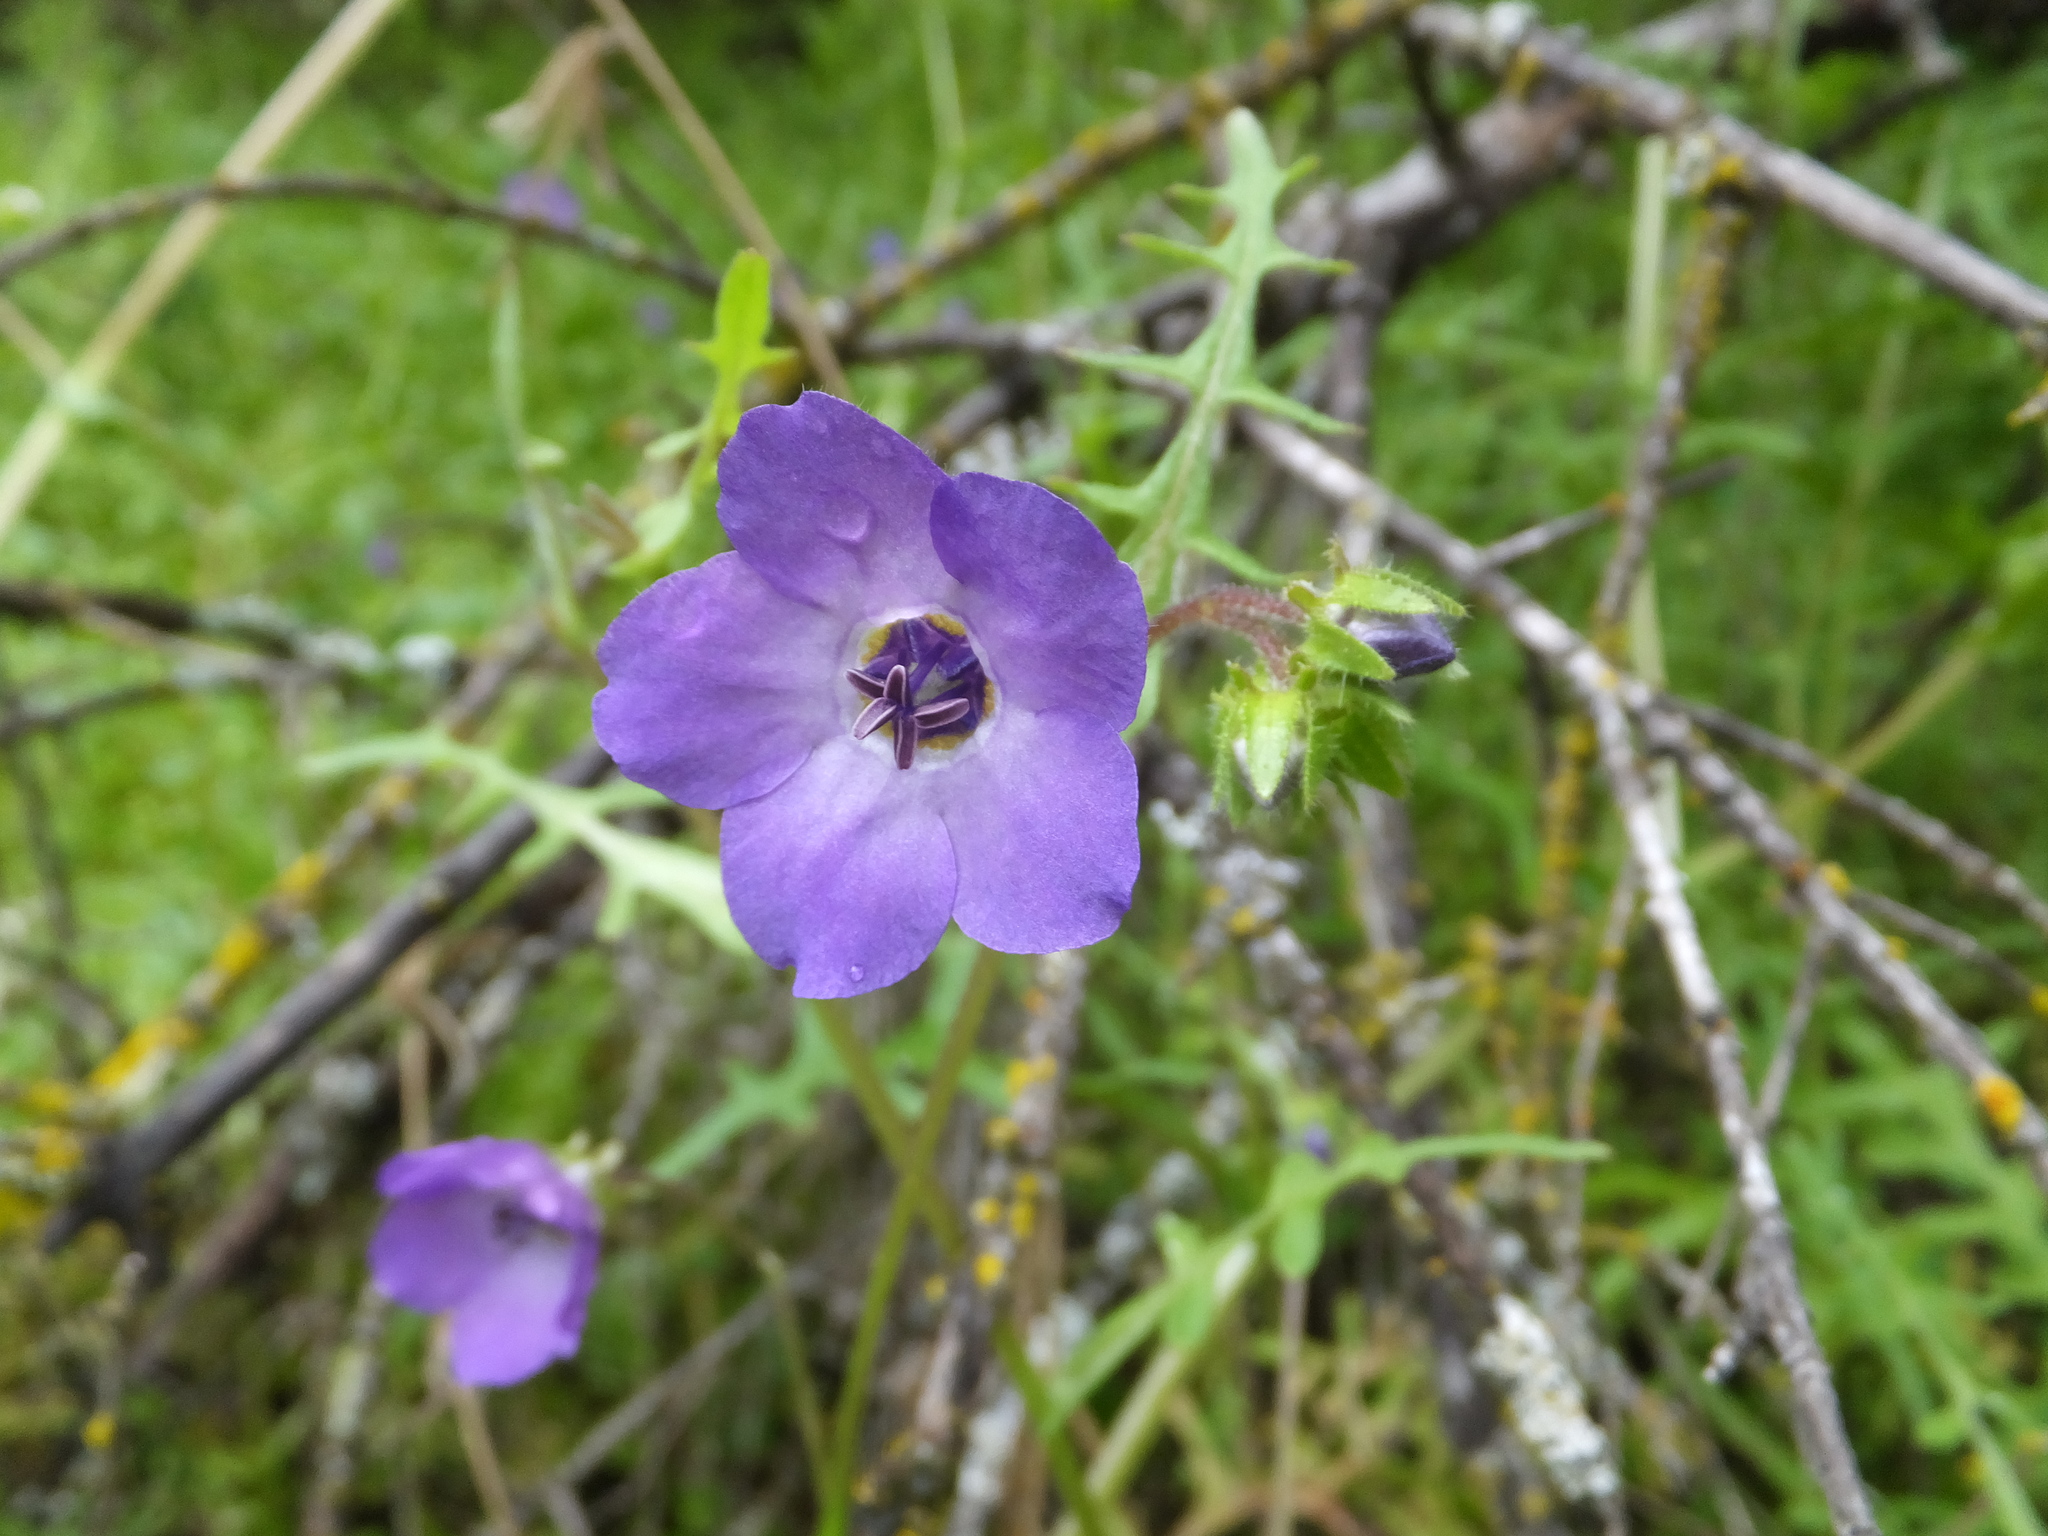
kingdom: Plantae
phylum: Tracheophyta
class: Magnoliopsida
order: Boraginales
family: Hydrophyllaceae
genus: Pholistoma
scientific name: Pholistoma auritum
